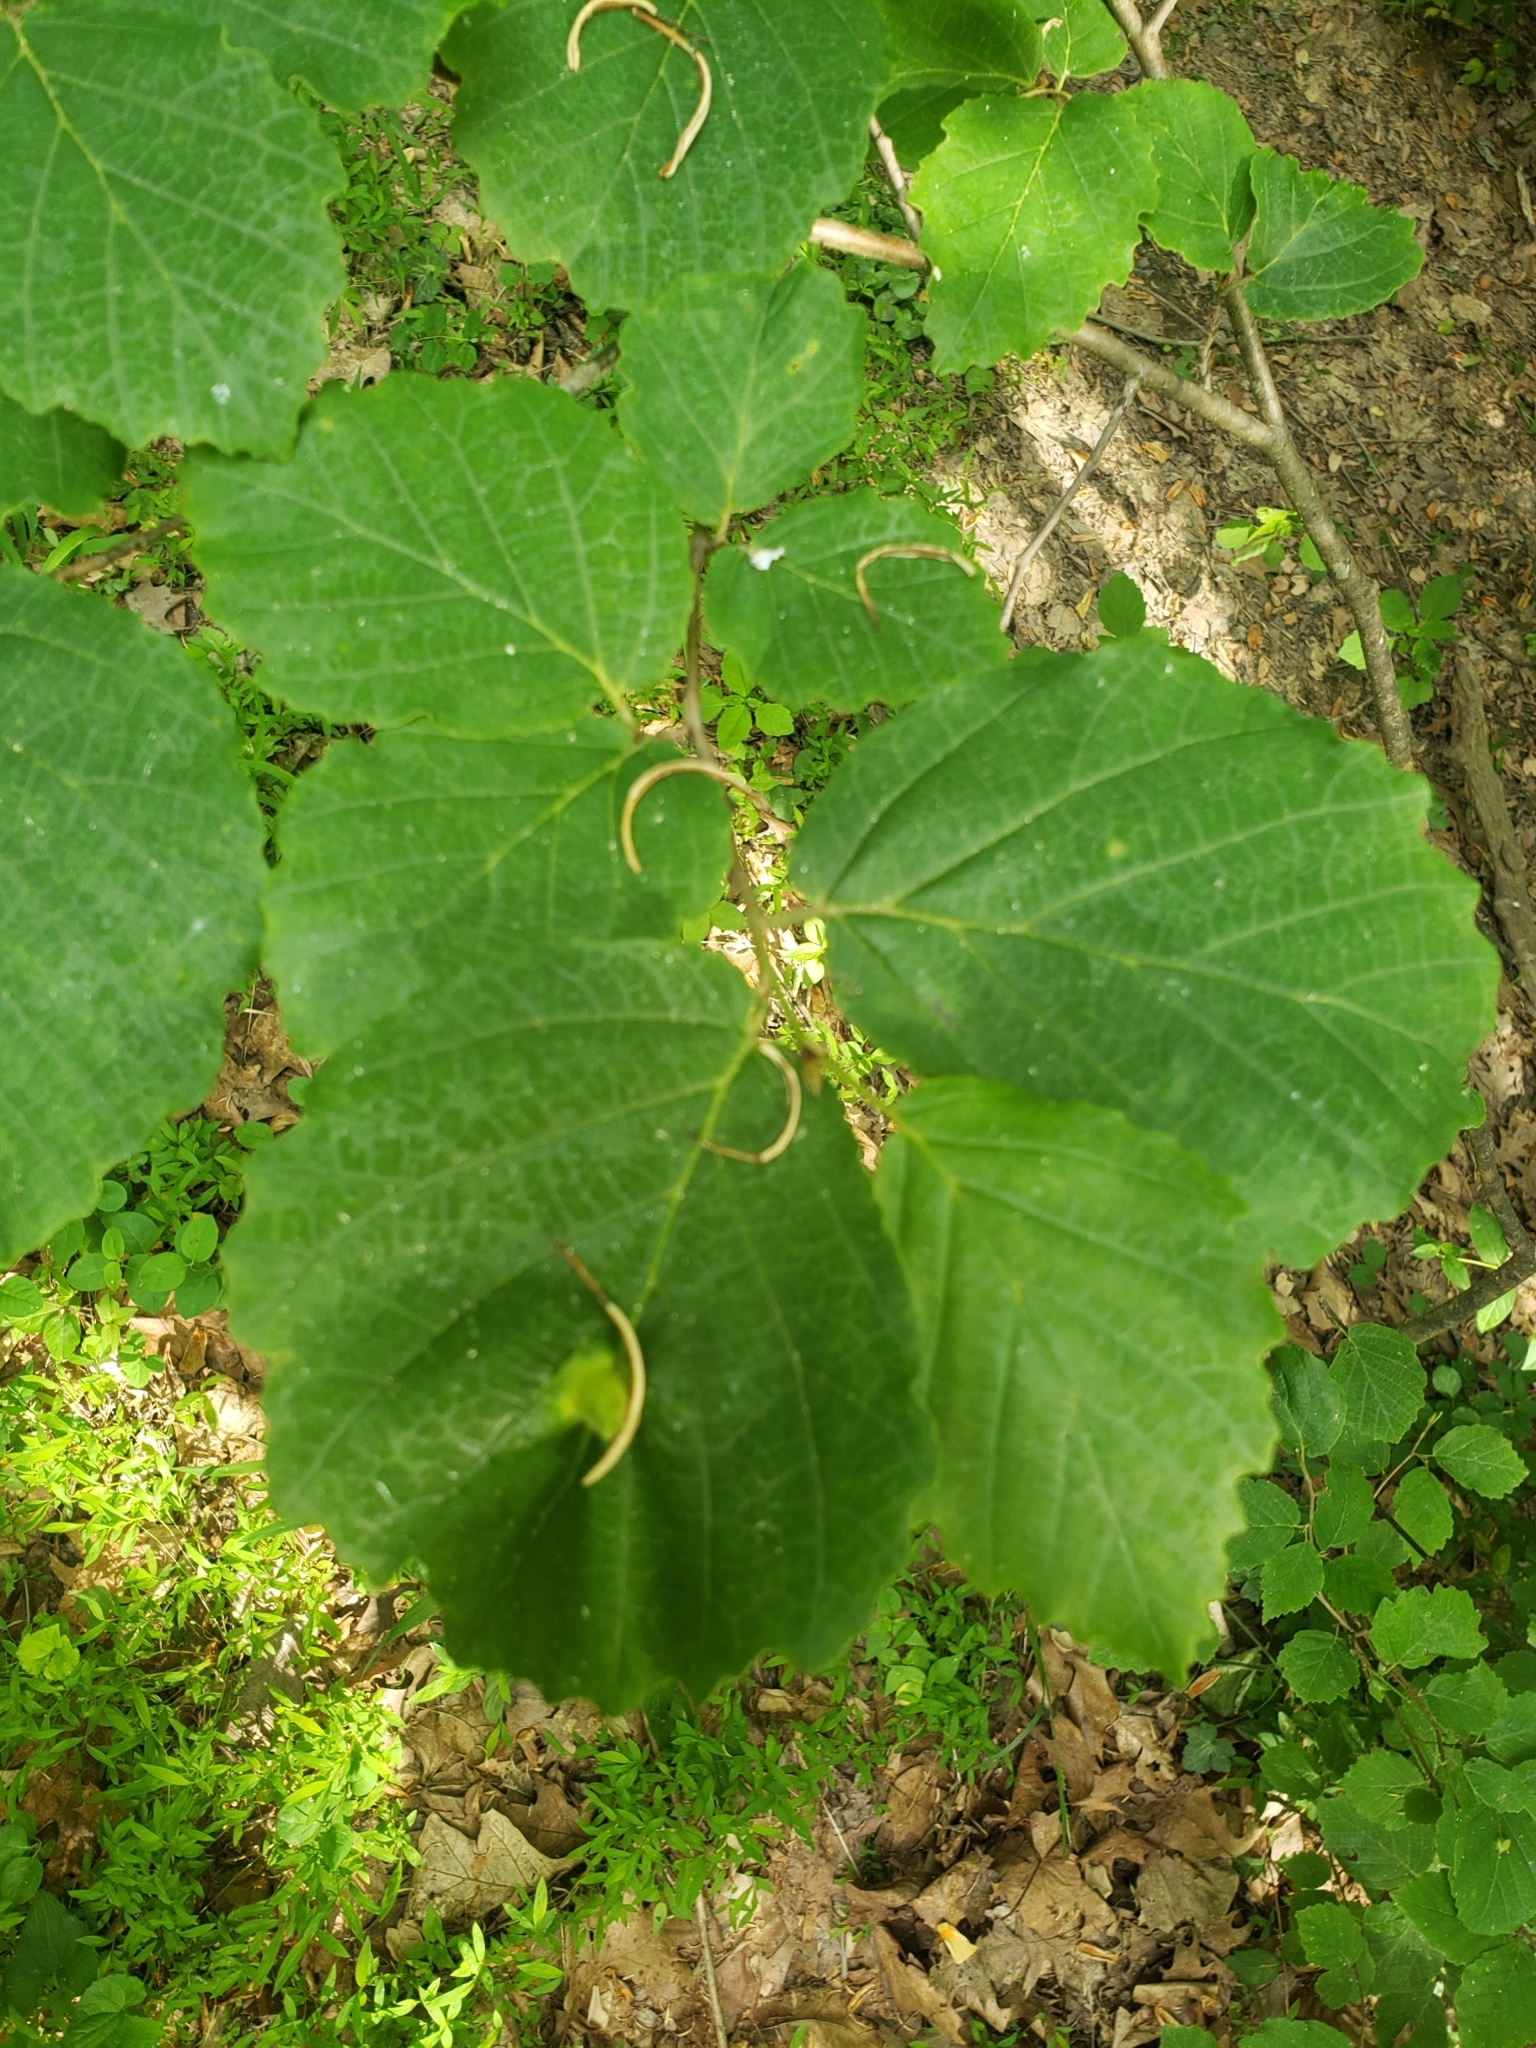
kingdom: Animalia
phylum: Arthropoda
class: Insecta
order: Hemiptera
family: Aphididae
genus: Hormaphis
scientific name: Hormaphis hamamelidis
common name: Witch-hazel cone gall aphid
